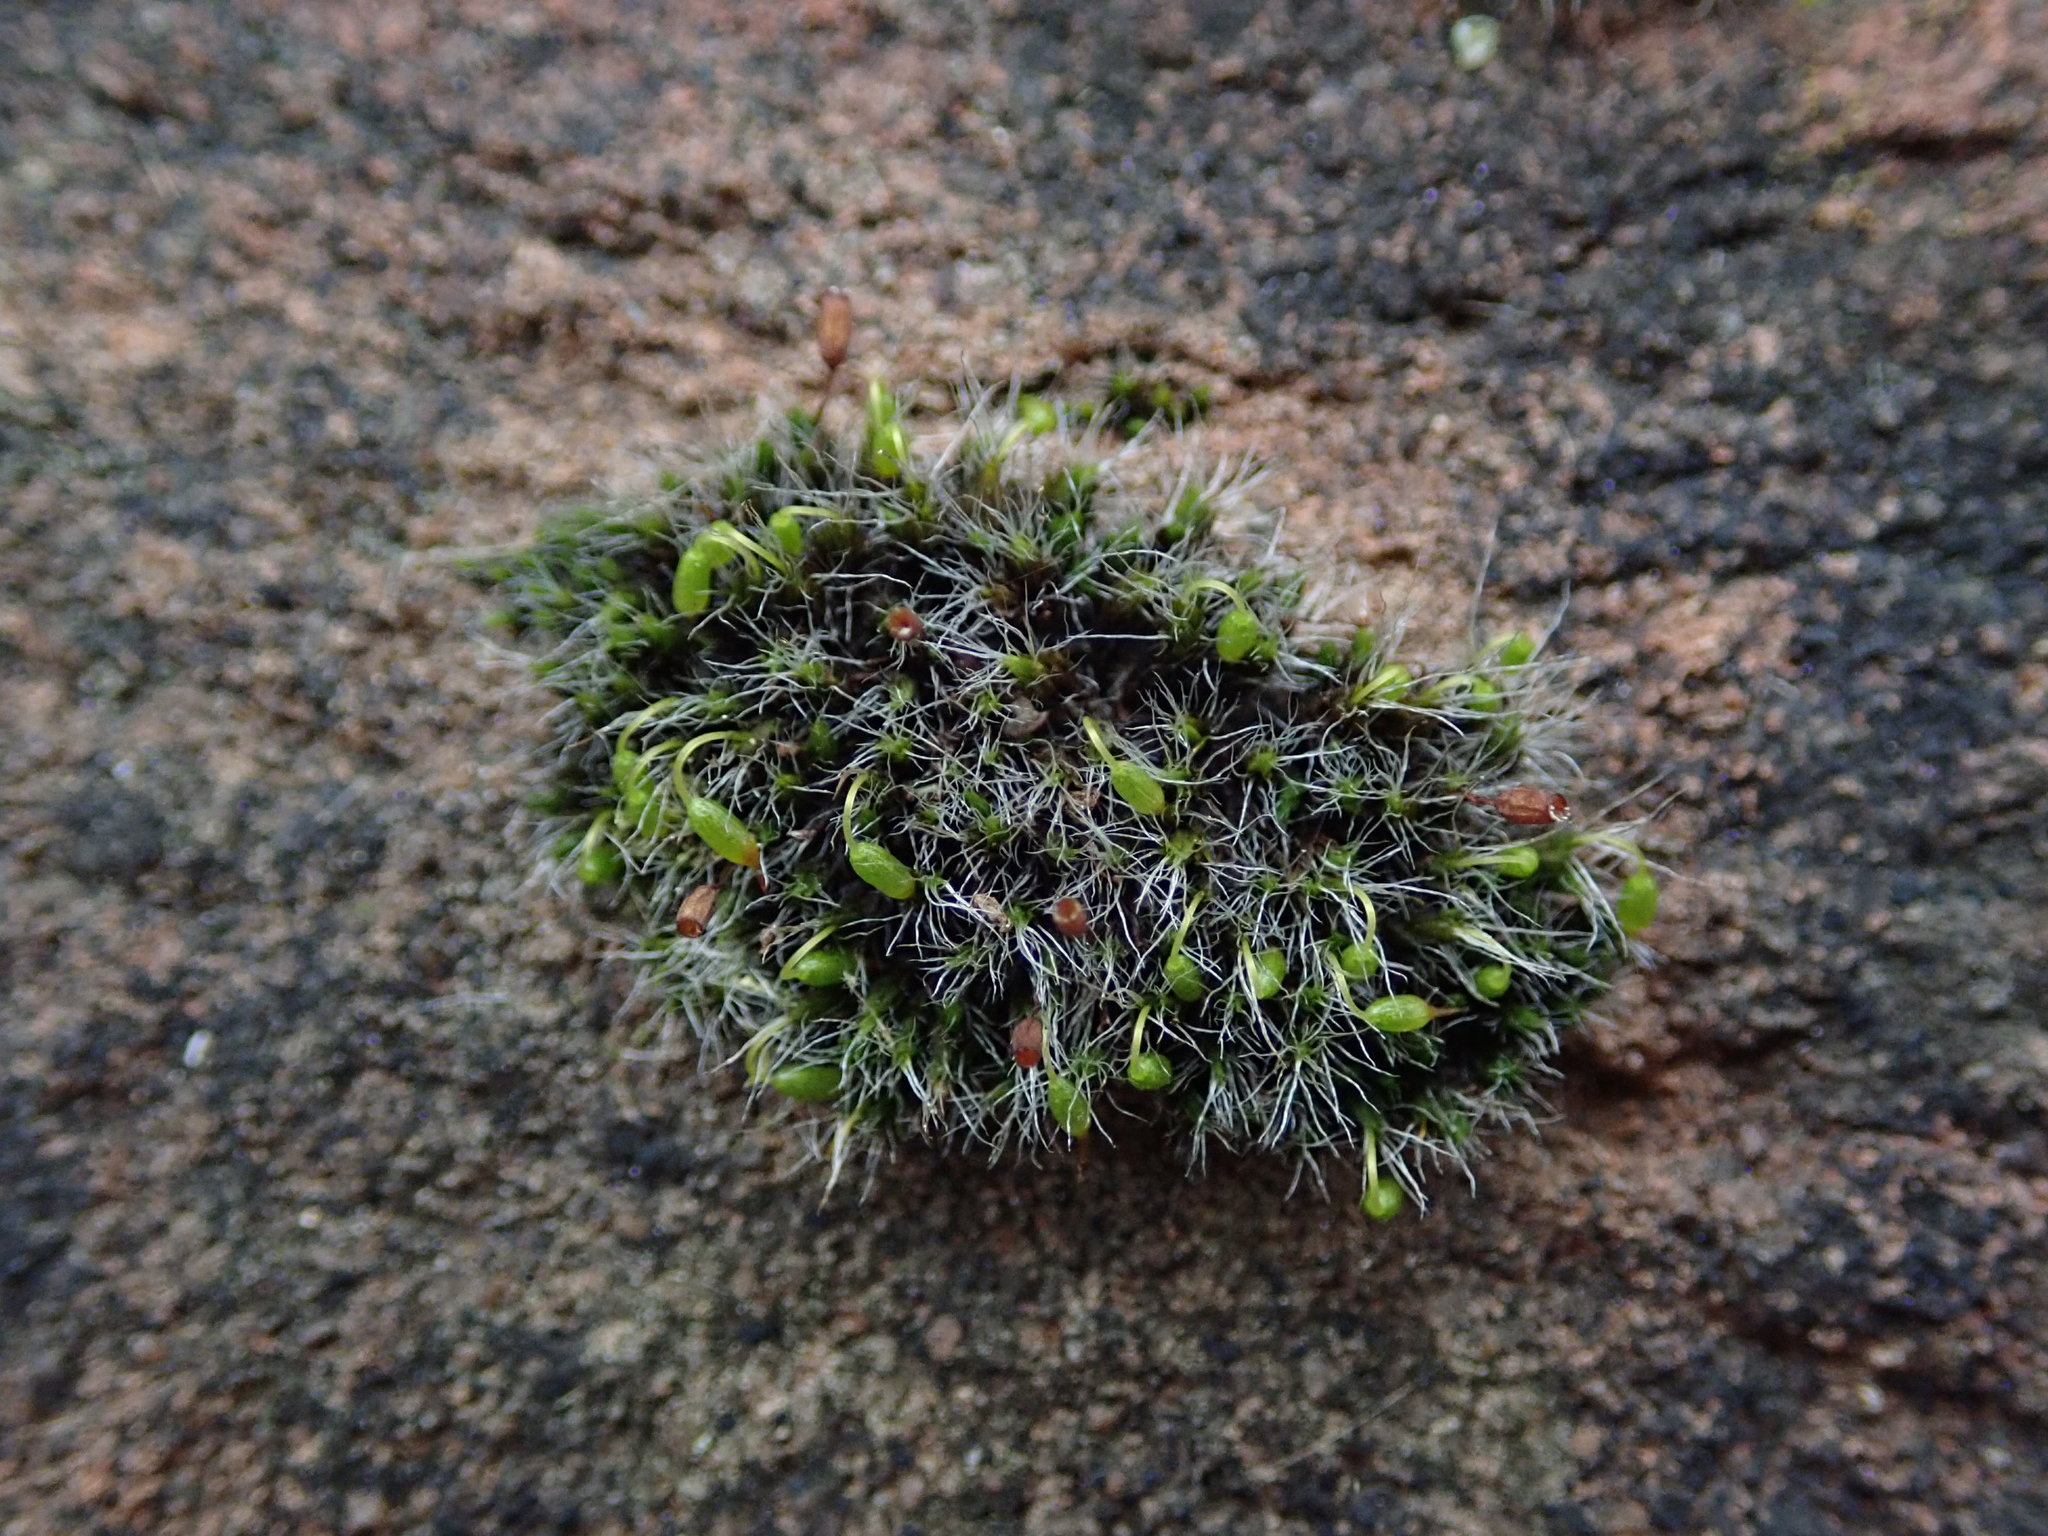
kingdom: Plantae
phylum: Bryophyta
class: Bryopsida
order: Grimmiales
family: Grimmiaceae
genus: Grimmia
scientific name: Grimmia pulvinata
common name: Grey-cushioned grimmia
